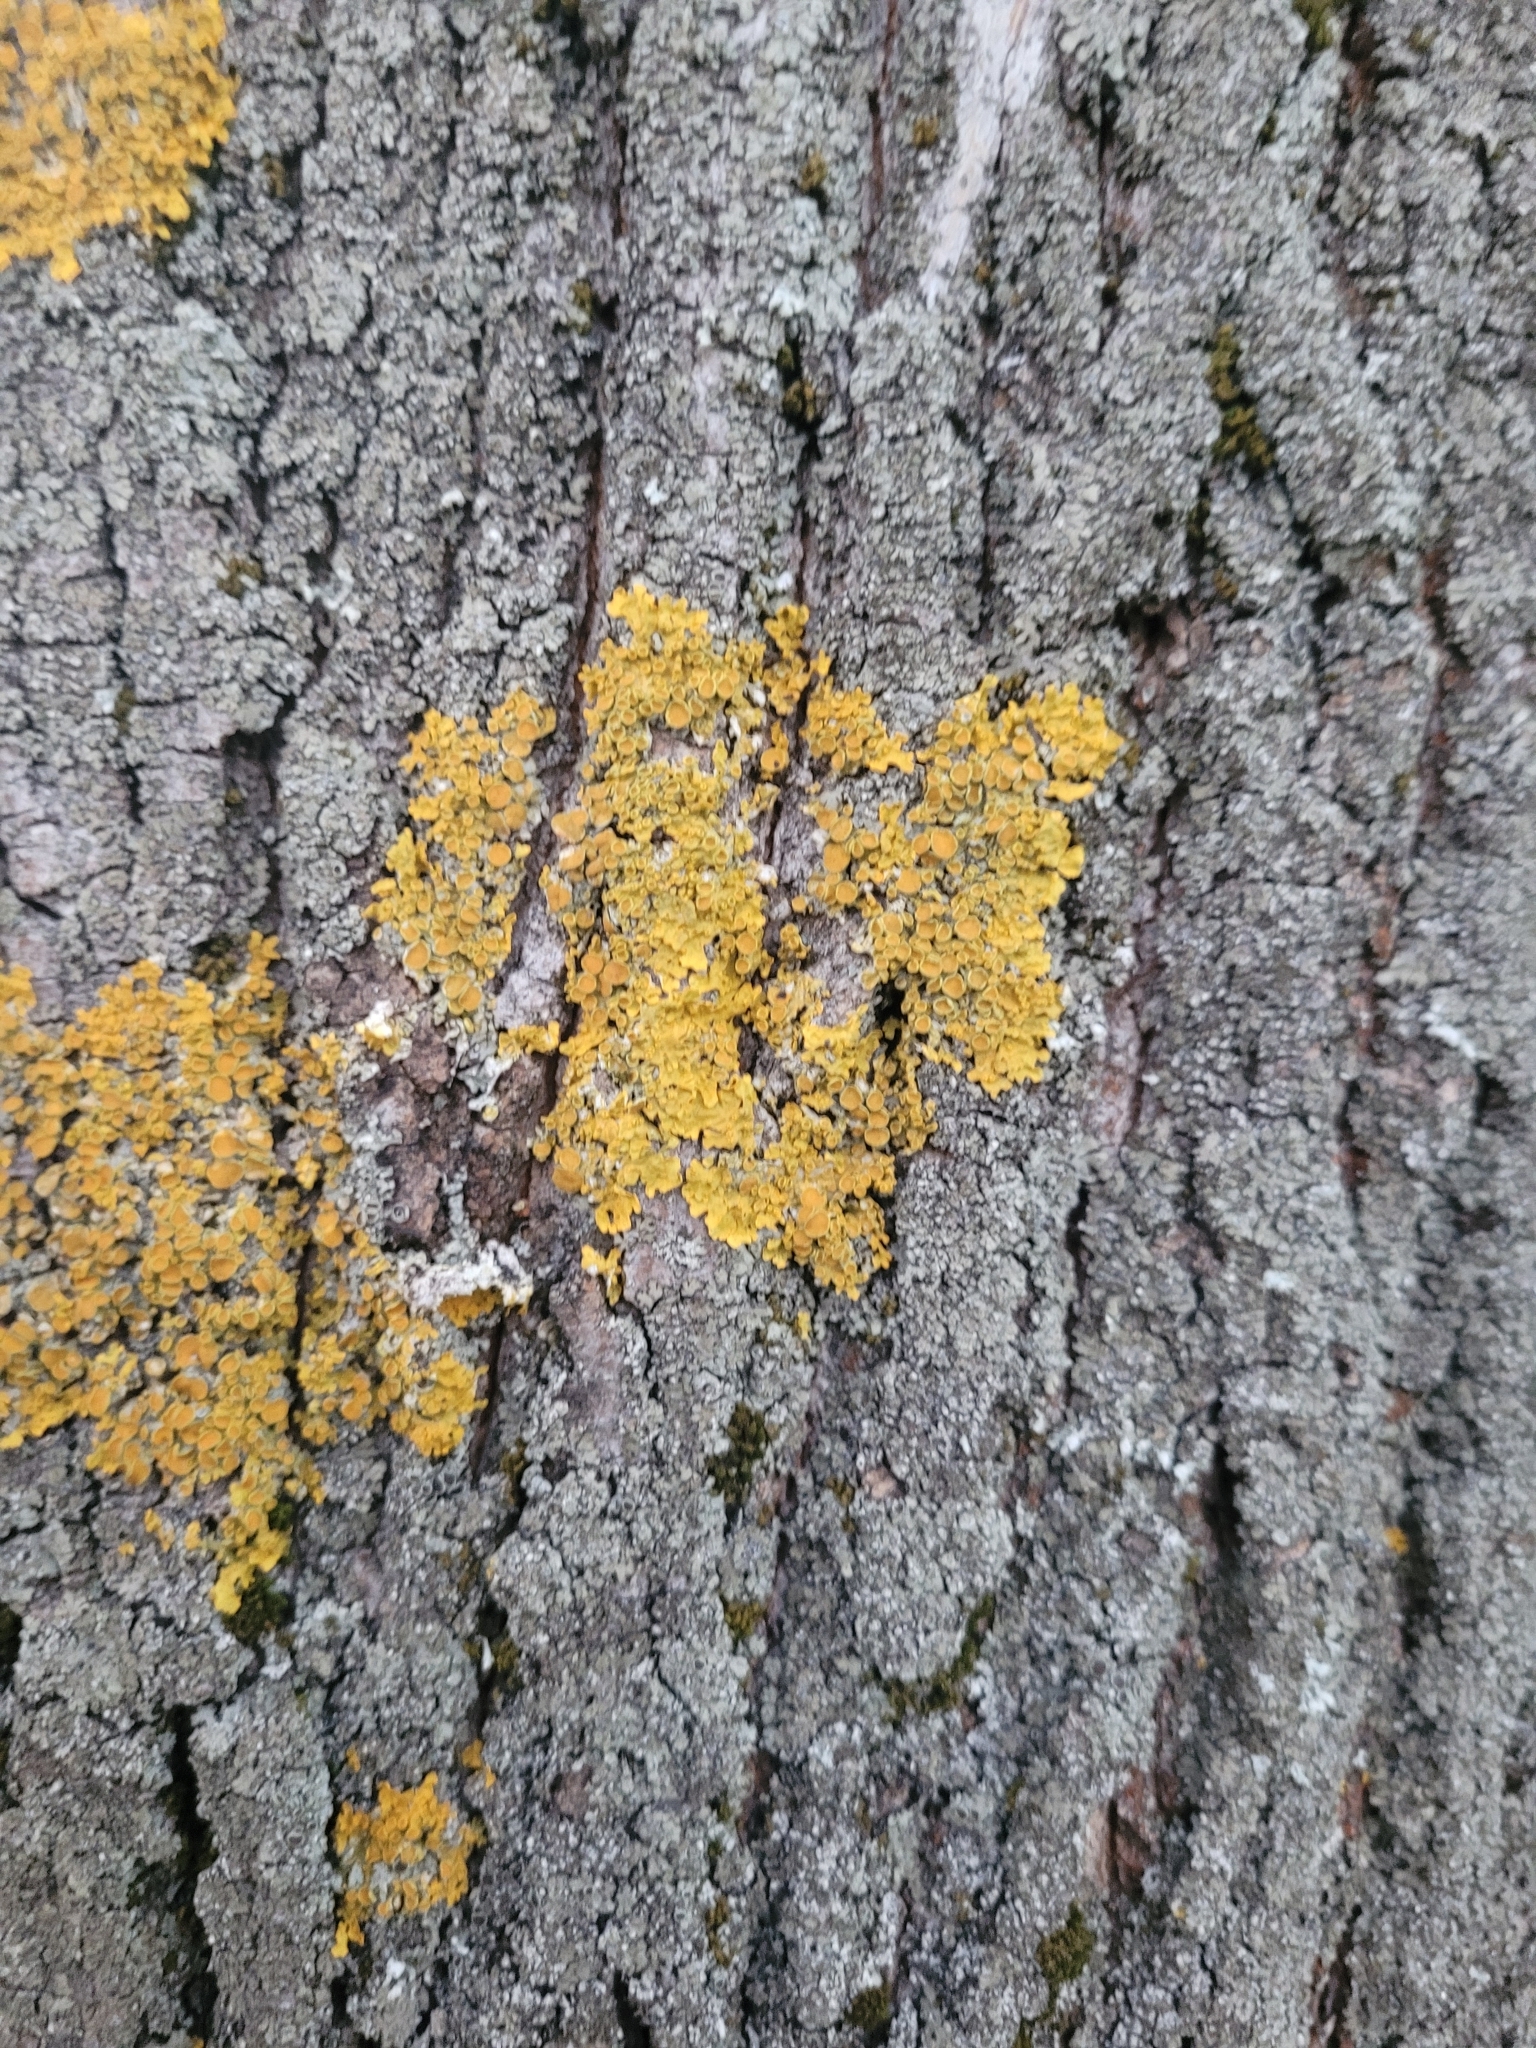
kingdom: Fungi
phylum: Ascomycota
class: Lecanoromycetes
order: Teloschistales
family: Teloschistaceae
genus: Xanthoria
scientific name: Xanthoria parietina
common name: Common orange lichen
